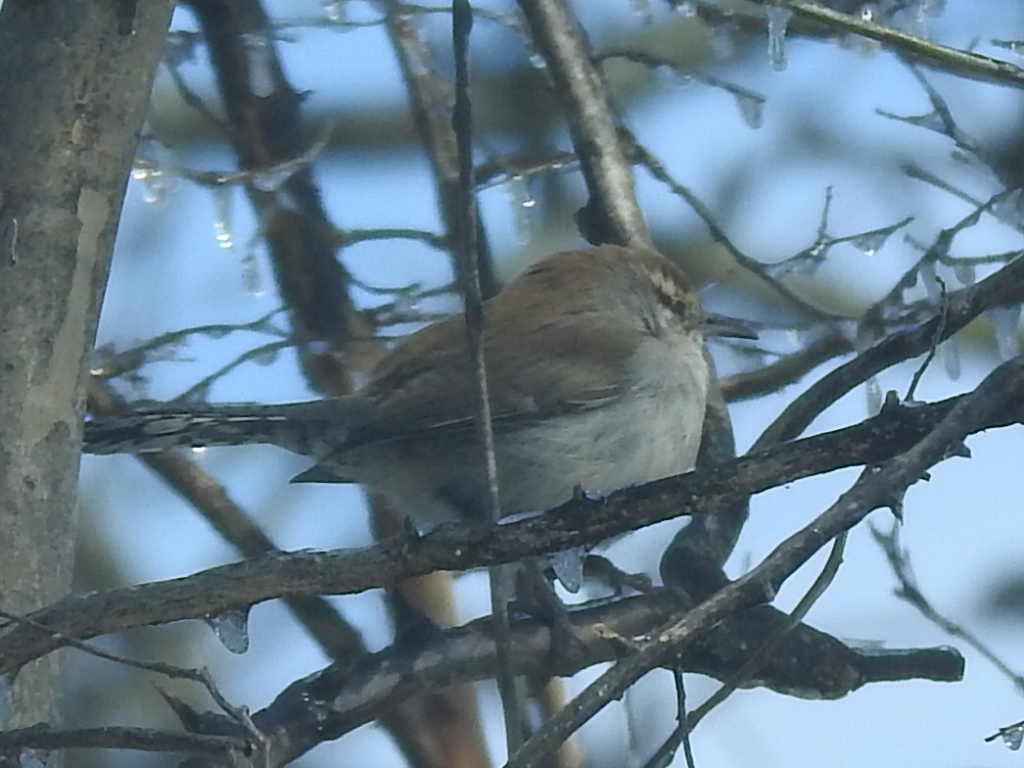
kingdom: Animalia
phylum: Chordata
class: Aves
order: Passeriformes
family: Troglodytidae
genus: Thryomanes
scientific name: Thryomanes bewickii
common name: Bewick's wren
